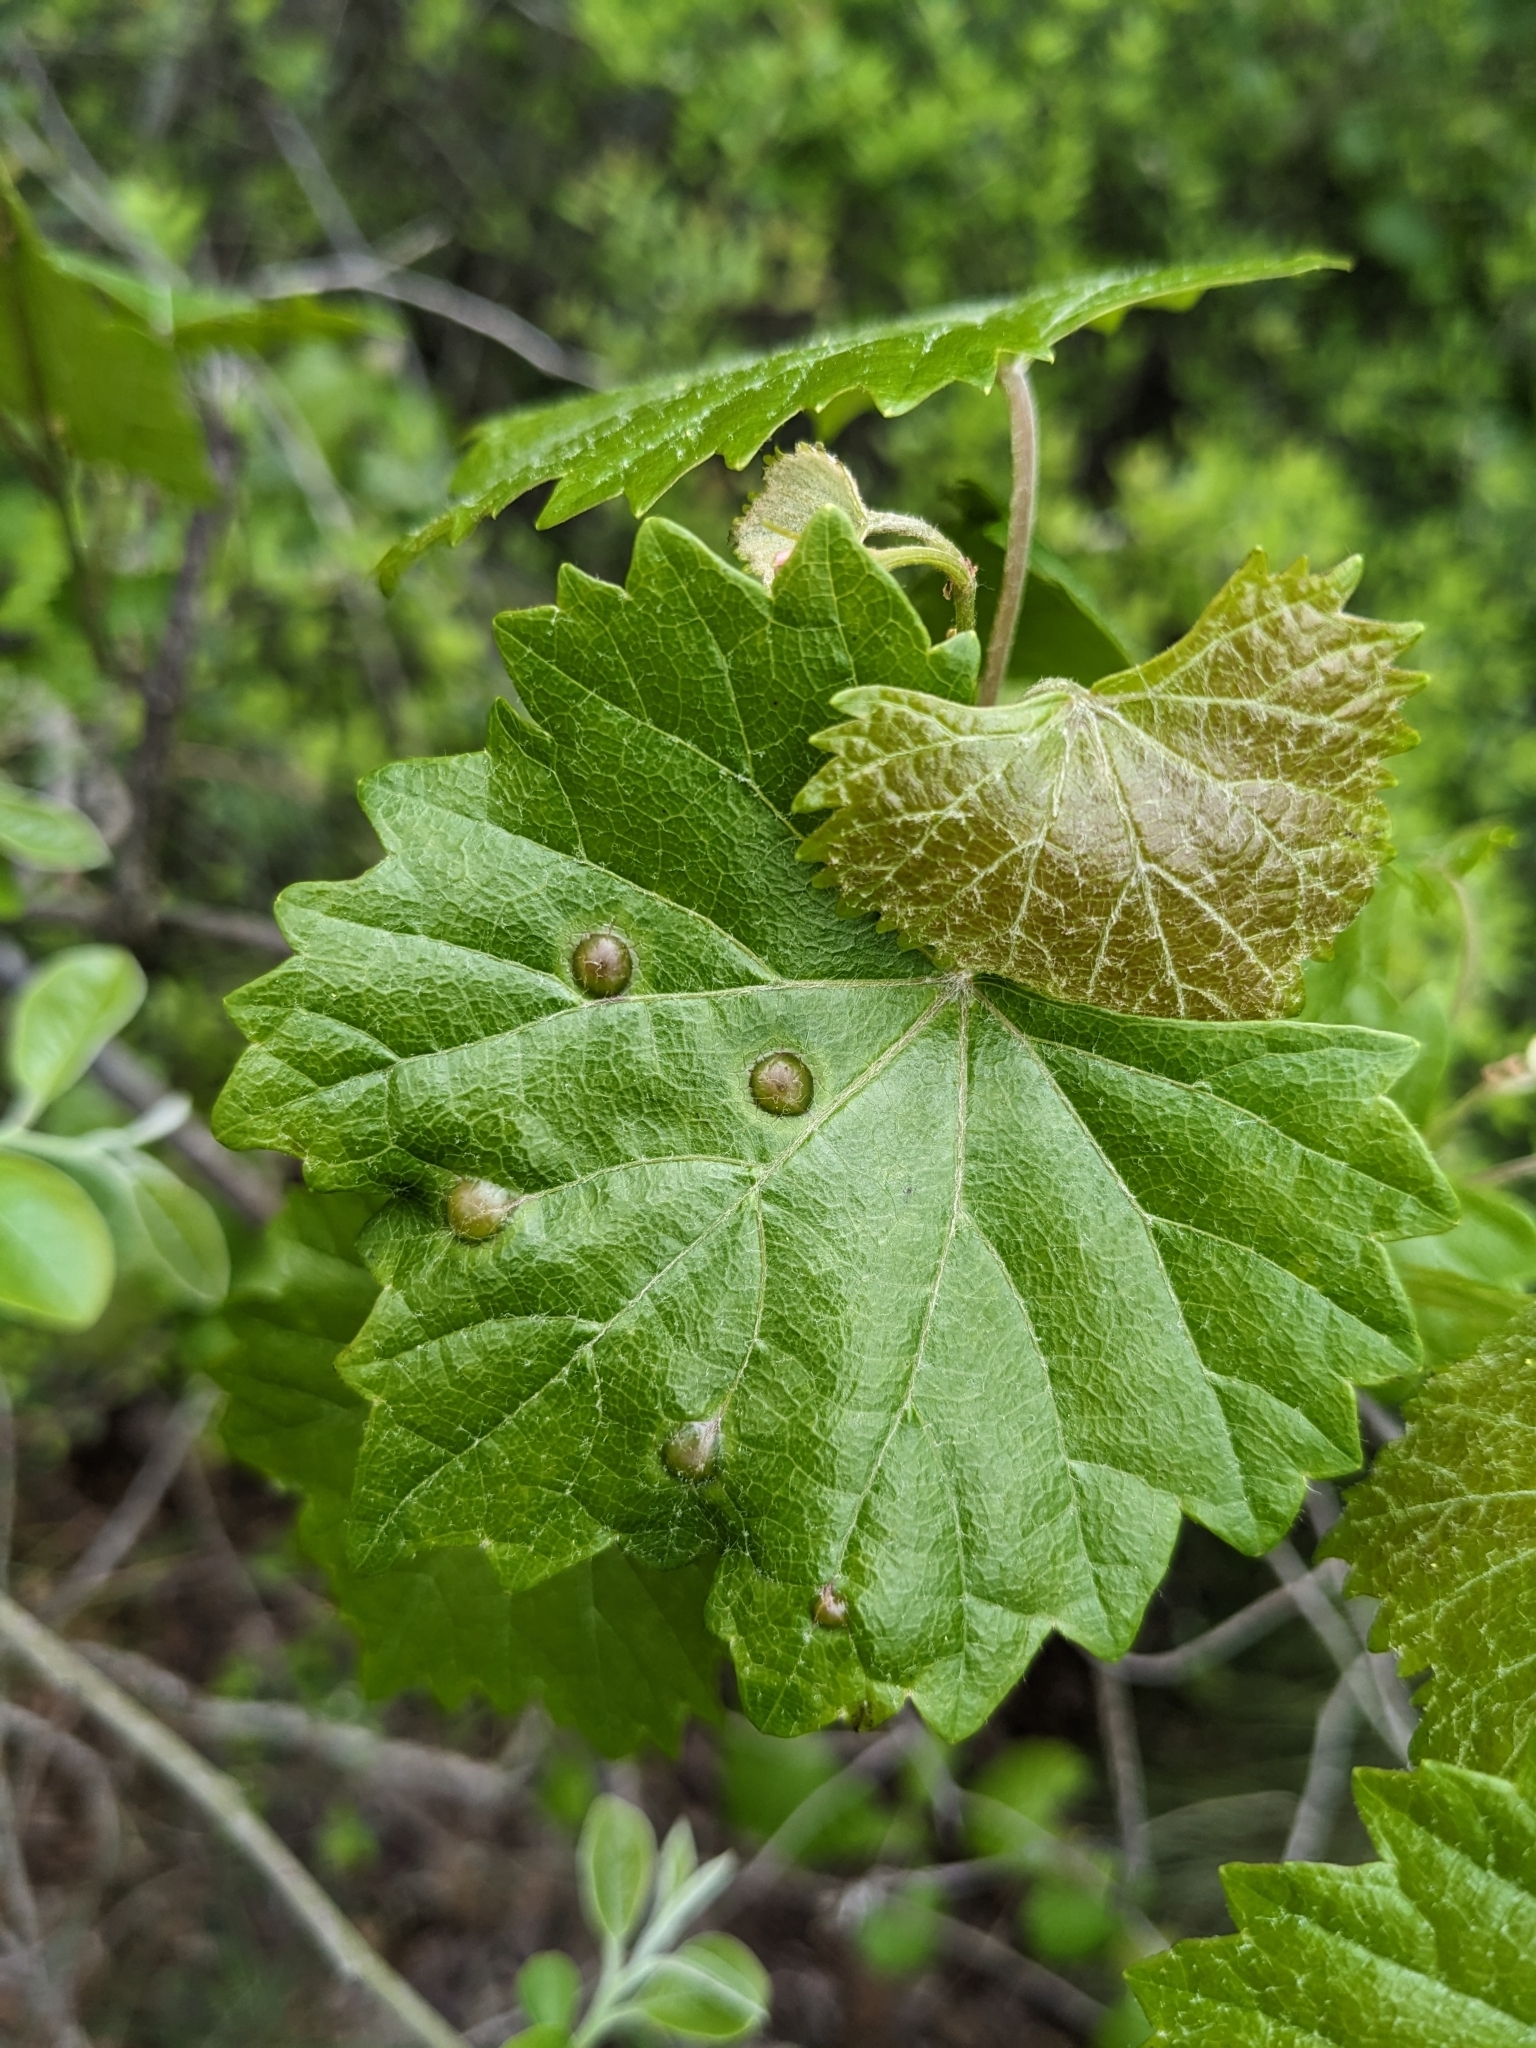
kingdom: Plantae
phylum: Tracheophyta
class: Magnoliopsida
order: Vitales
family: Vitaceae
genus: Vitis
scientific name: Vitis rotundifolia
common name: Muscadine grape
